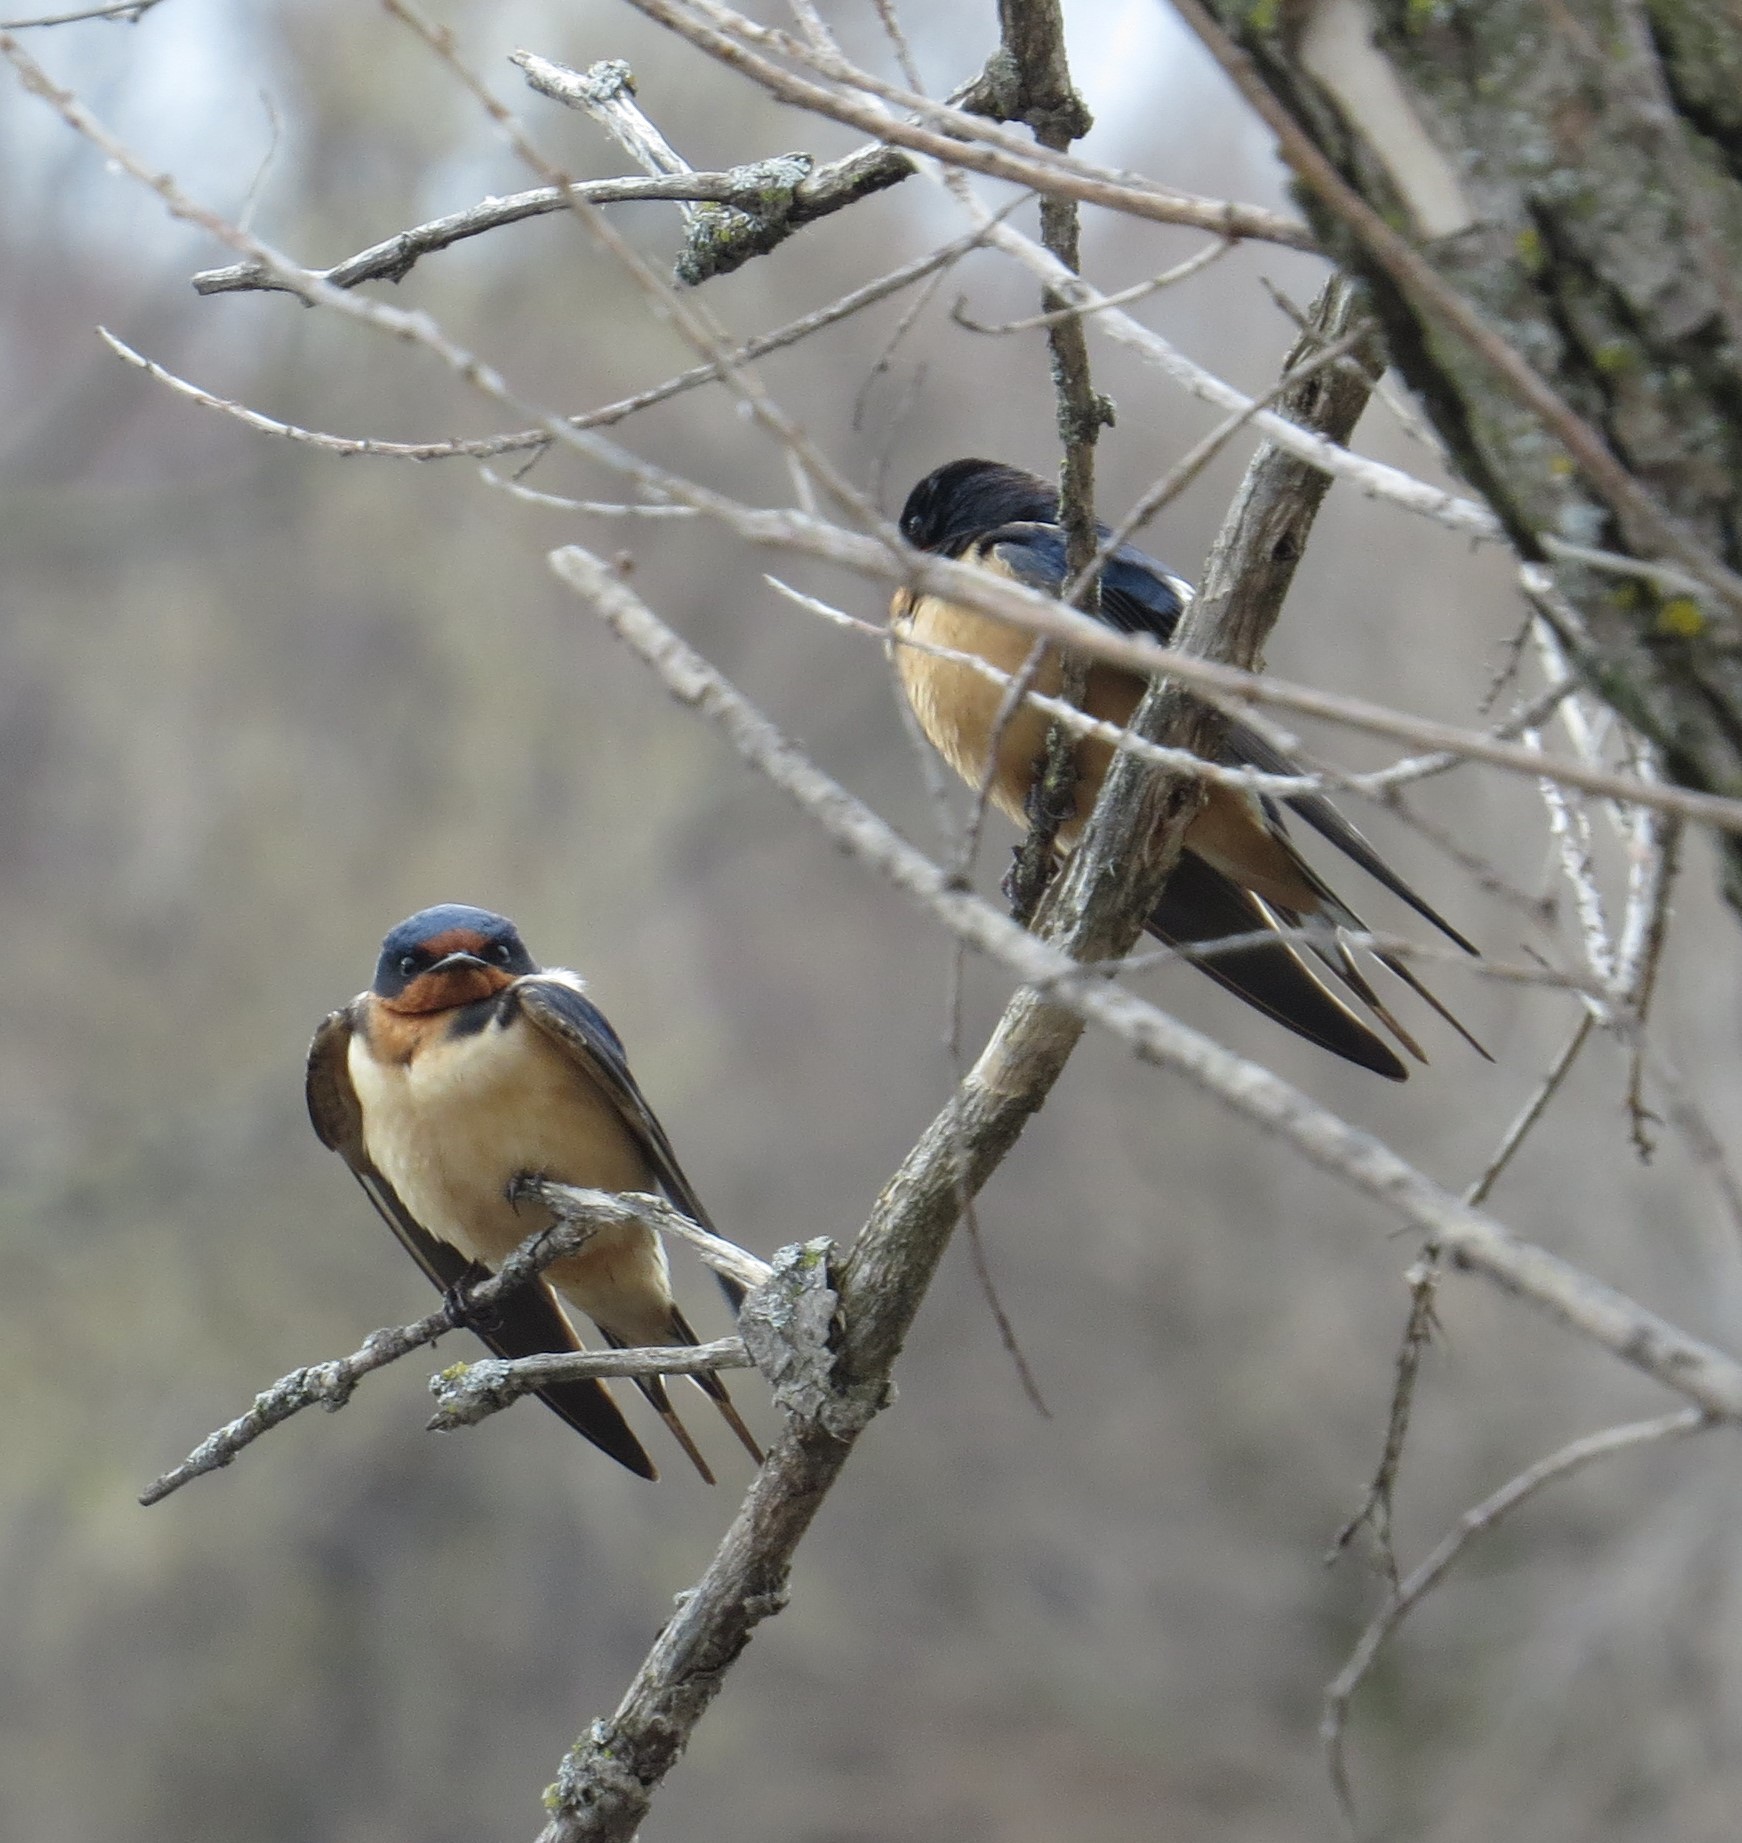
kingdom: Animalia
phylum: Chordata
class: Aves
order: Passeriformes
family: Hirundinidae
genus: Hirundo
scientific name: Hirundo rustica
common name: Barn swallow
